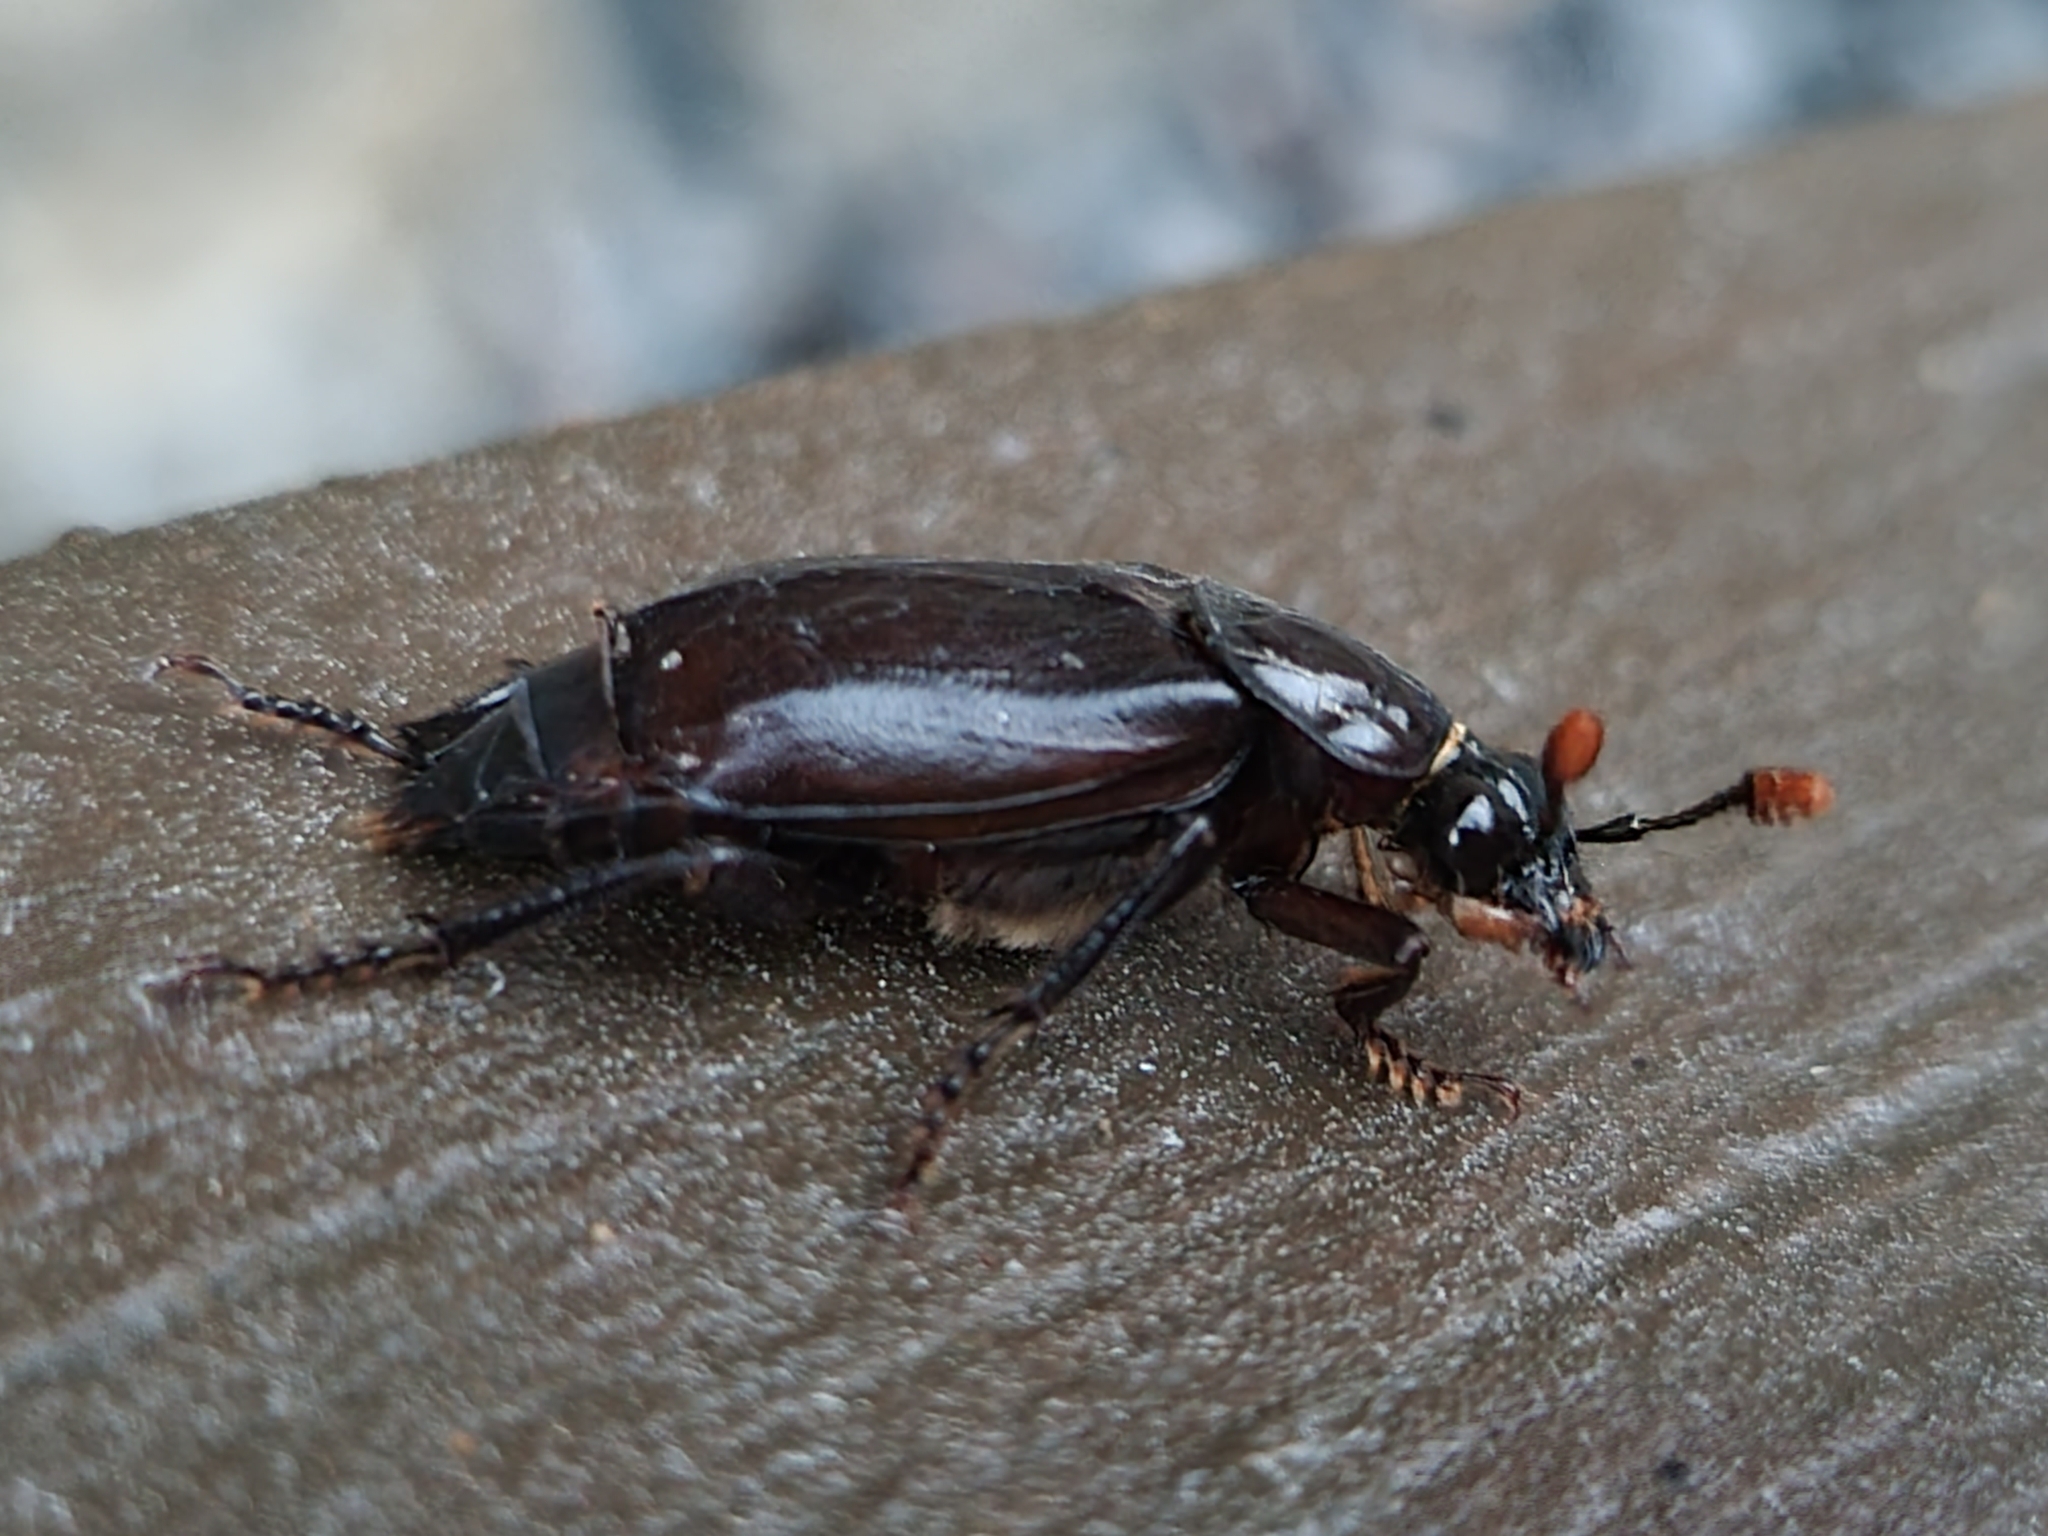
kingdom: Animalia
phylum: Arthropoda
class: Insecta
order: Coleoptera
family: Staphylinidae
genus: Nicrophorus
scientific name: Nicrophorus humator
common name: Black sexton beetle
